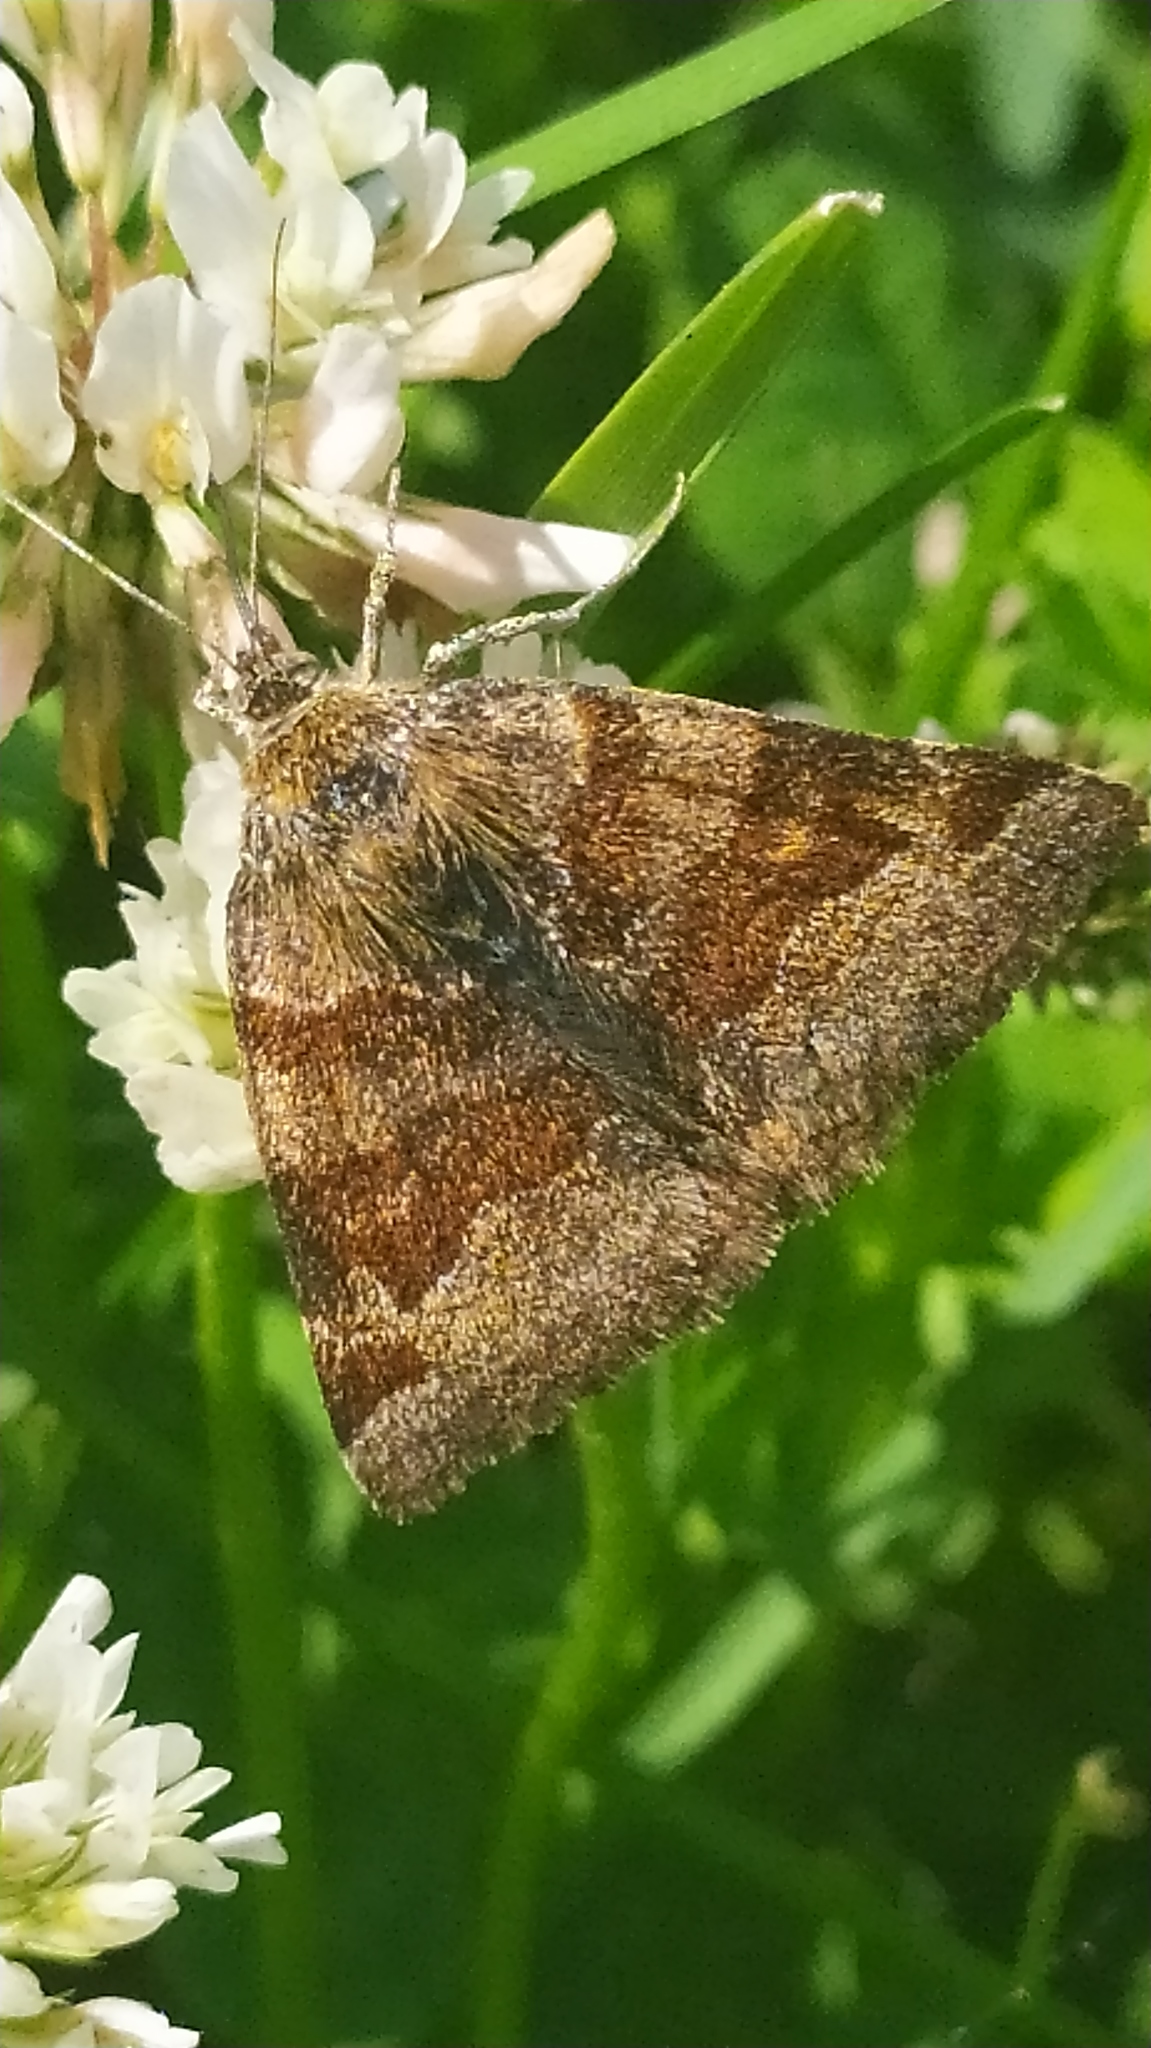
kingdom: Animalia
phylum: Arthropoda
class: Insecta
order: Lepidoptera
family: Erebidae
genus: Euclidia
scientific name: Euclidia glyphica
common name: Burnet companion
